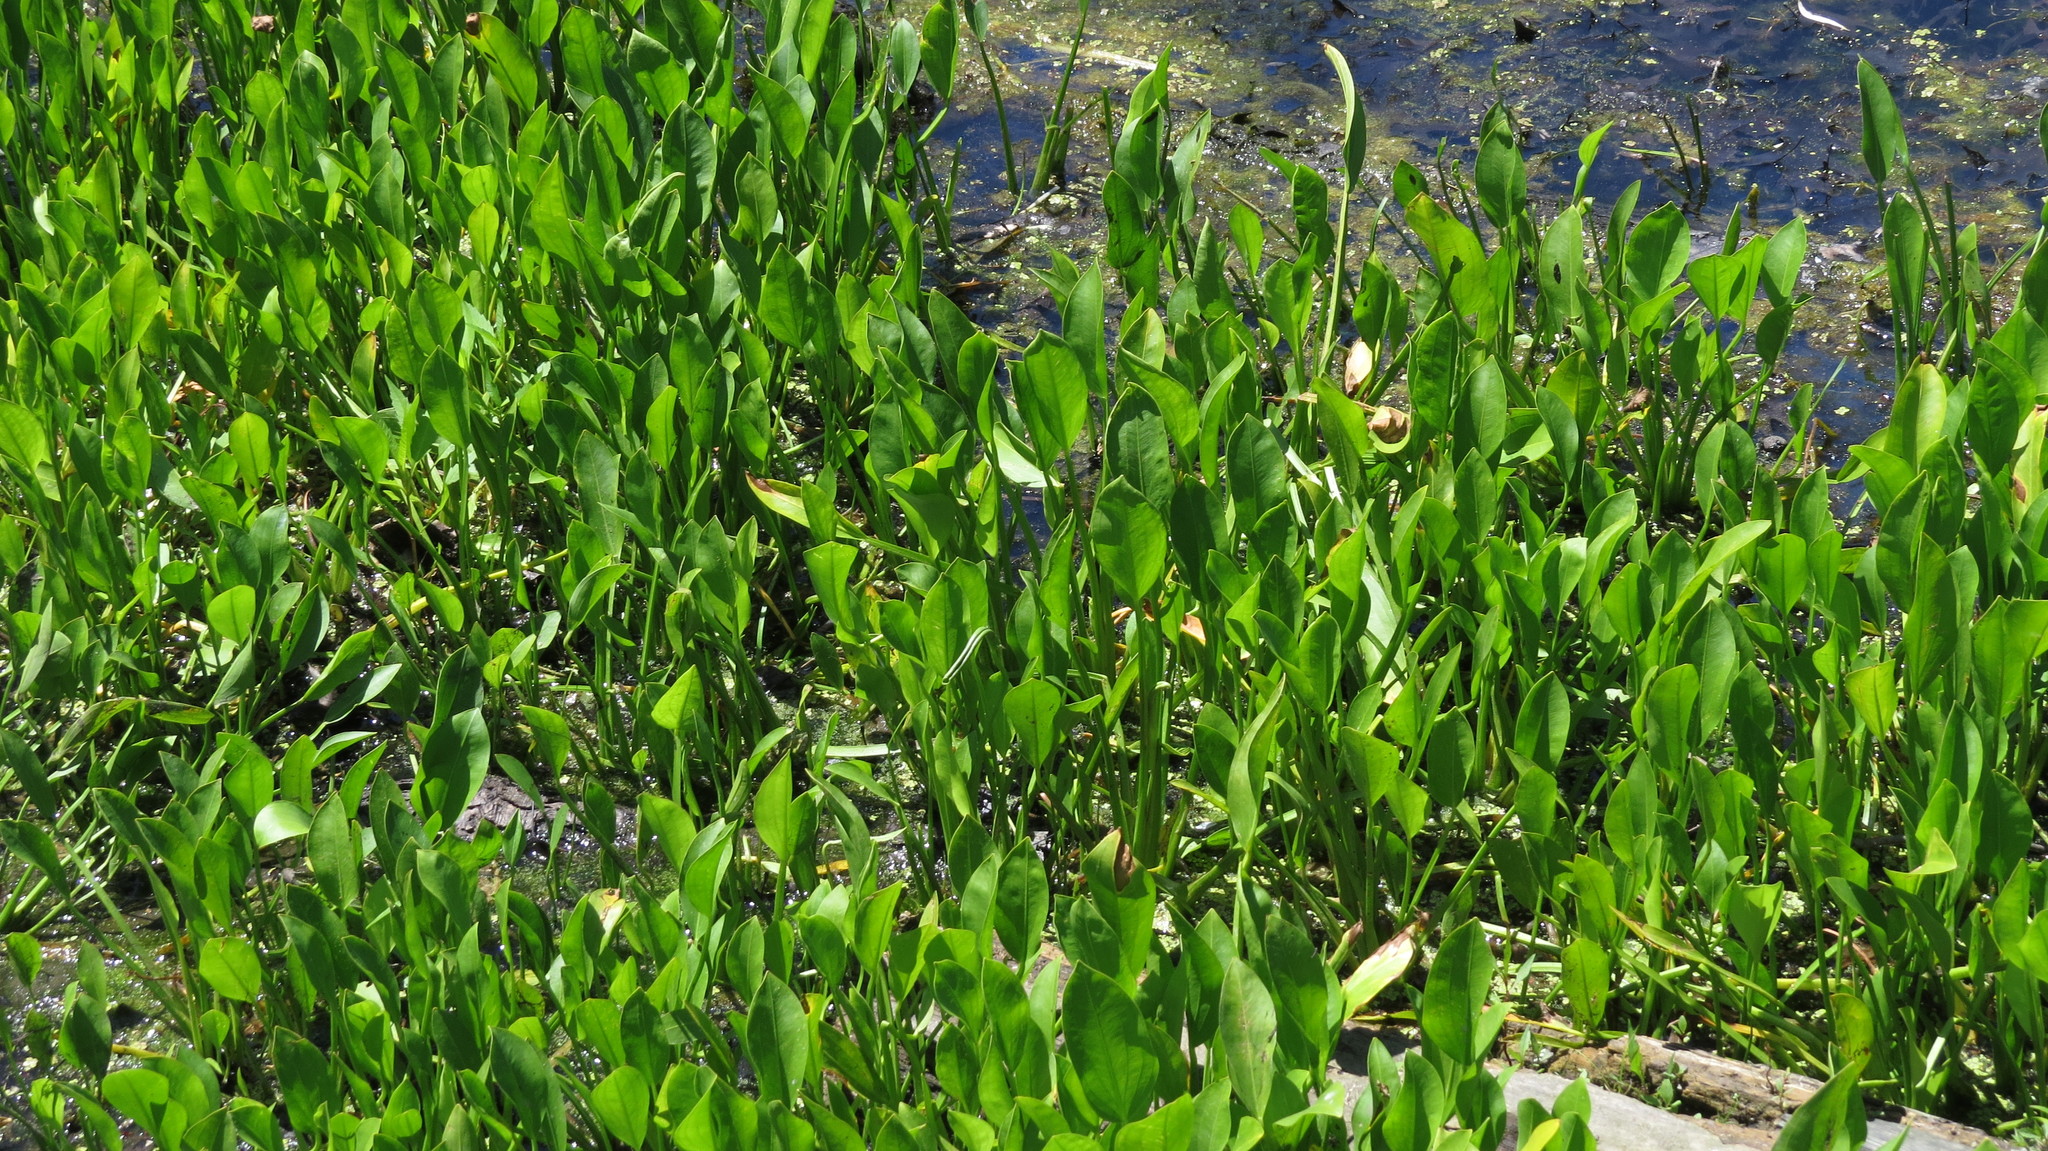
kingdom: Plantae
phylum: Tracheophyta
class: Liliopsida
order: Commelinales
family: Pontederiaceae
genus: Pontederia
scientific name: Pontederia cordata
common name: Pickerelweed
